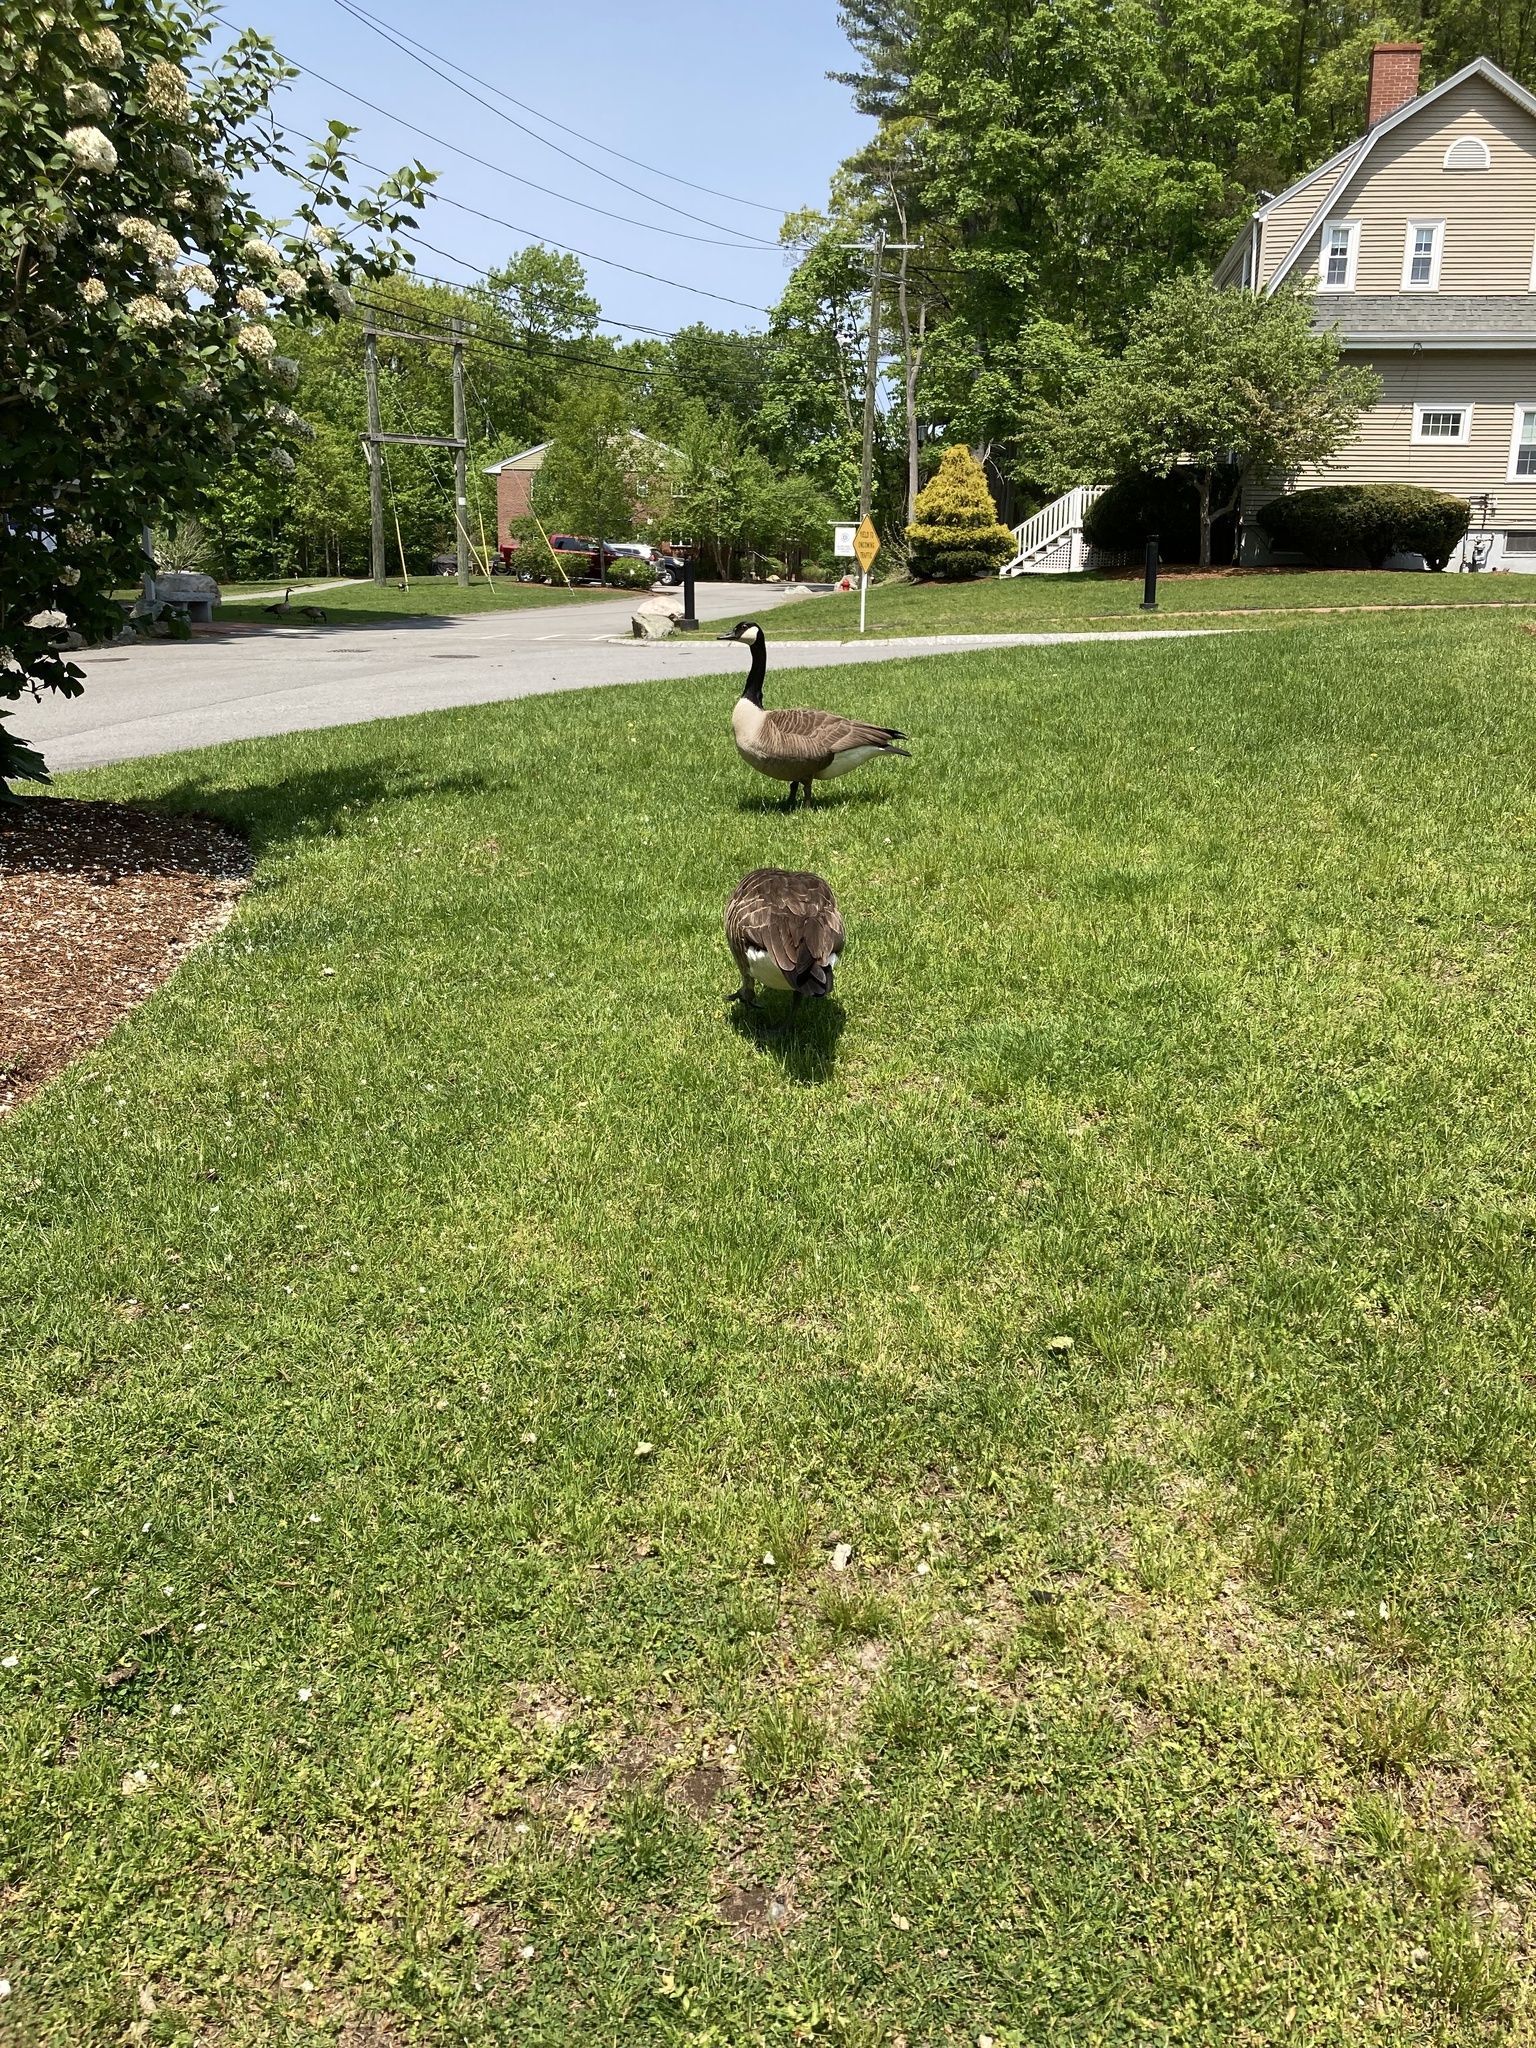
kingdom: Animalia
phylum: Chordata
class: Aves
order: Anseriformes
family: Anatidae
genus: Branta
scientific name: Branta canadensis
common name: Canada goose
